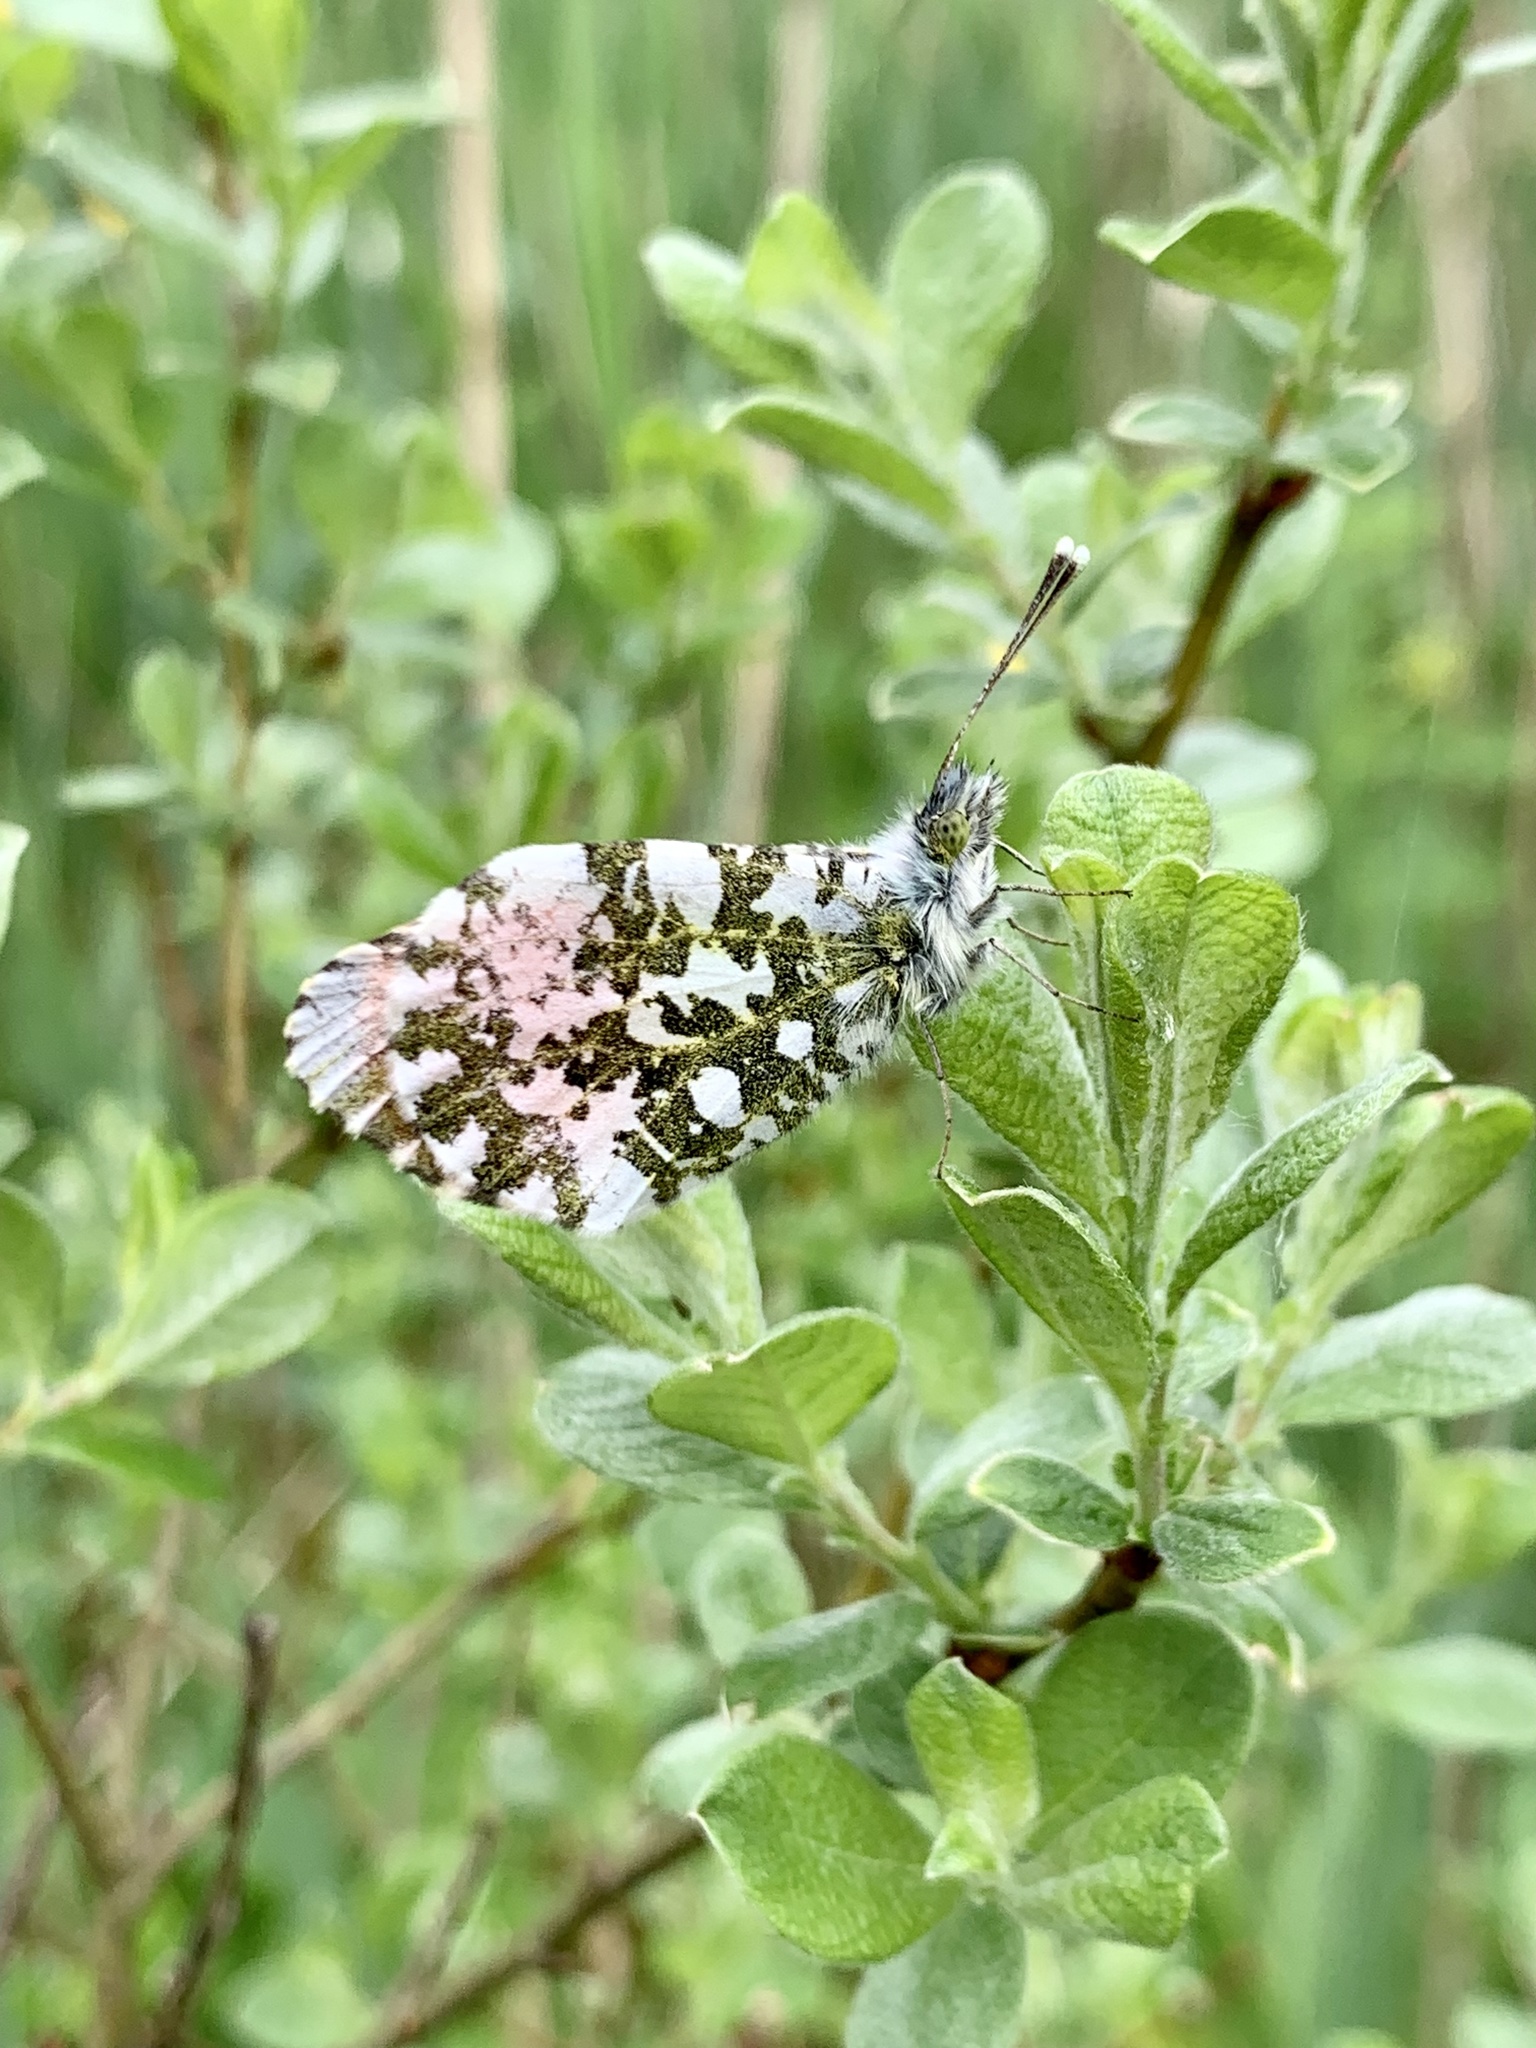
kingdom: Animalia
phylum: Arthropoda
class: Insecta
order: Lepidoptera
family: Pieridae
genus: Anthocharis
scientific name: Anthocharis cardamines
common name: Orange-tip
